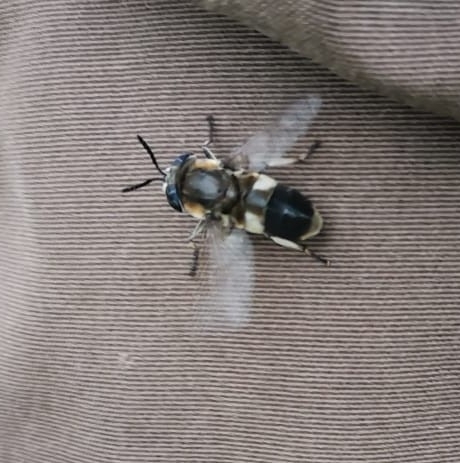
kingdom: Animalia
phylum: Arthropoda
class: Insecta
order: Diptera
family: Tabanidae
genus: Heptatoma
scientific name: Heptatoma pellucens
